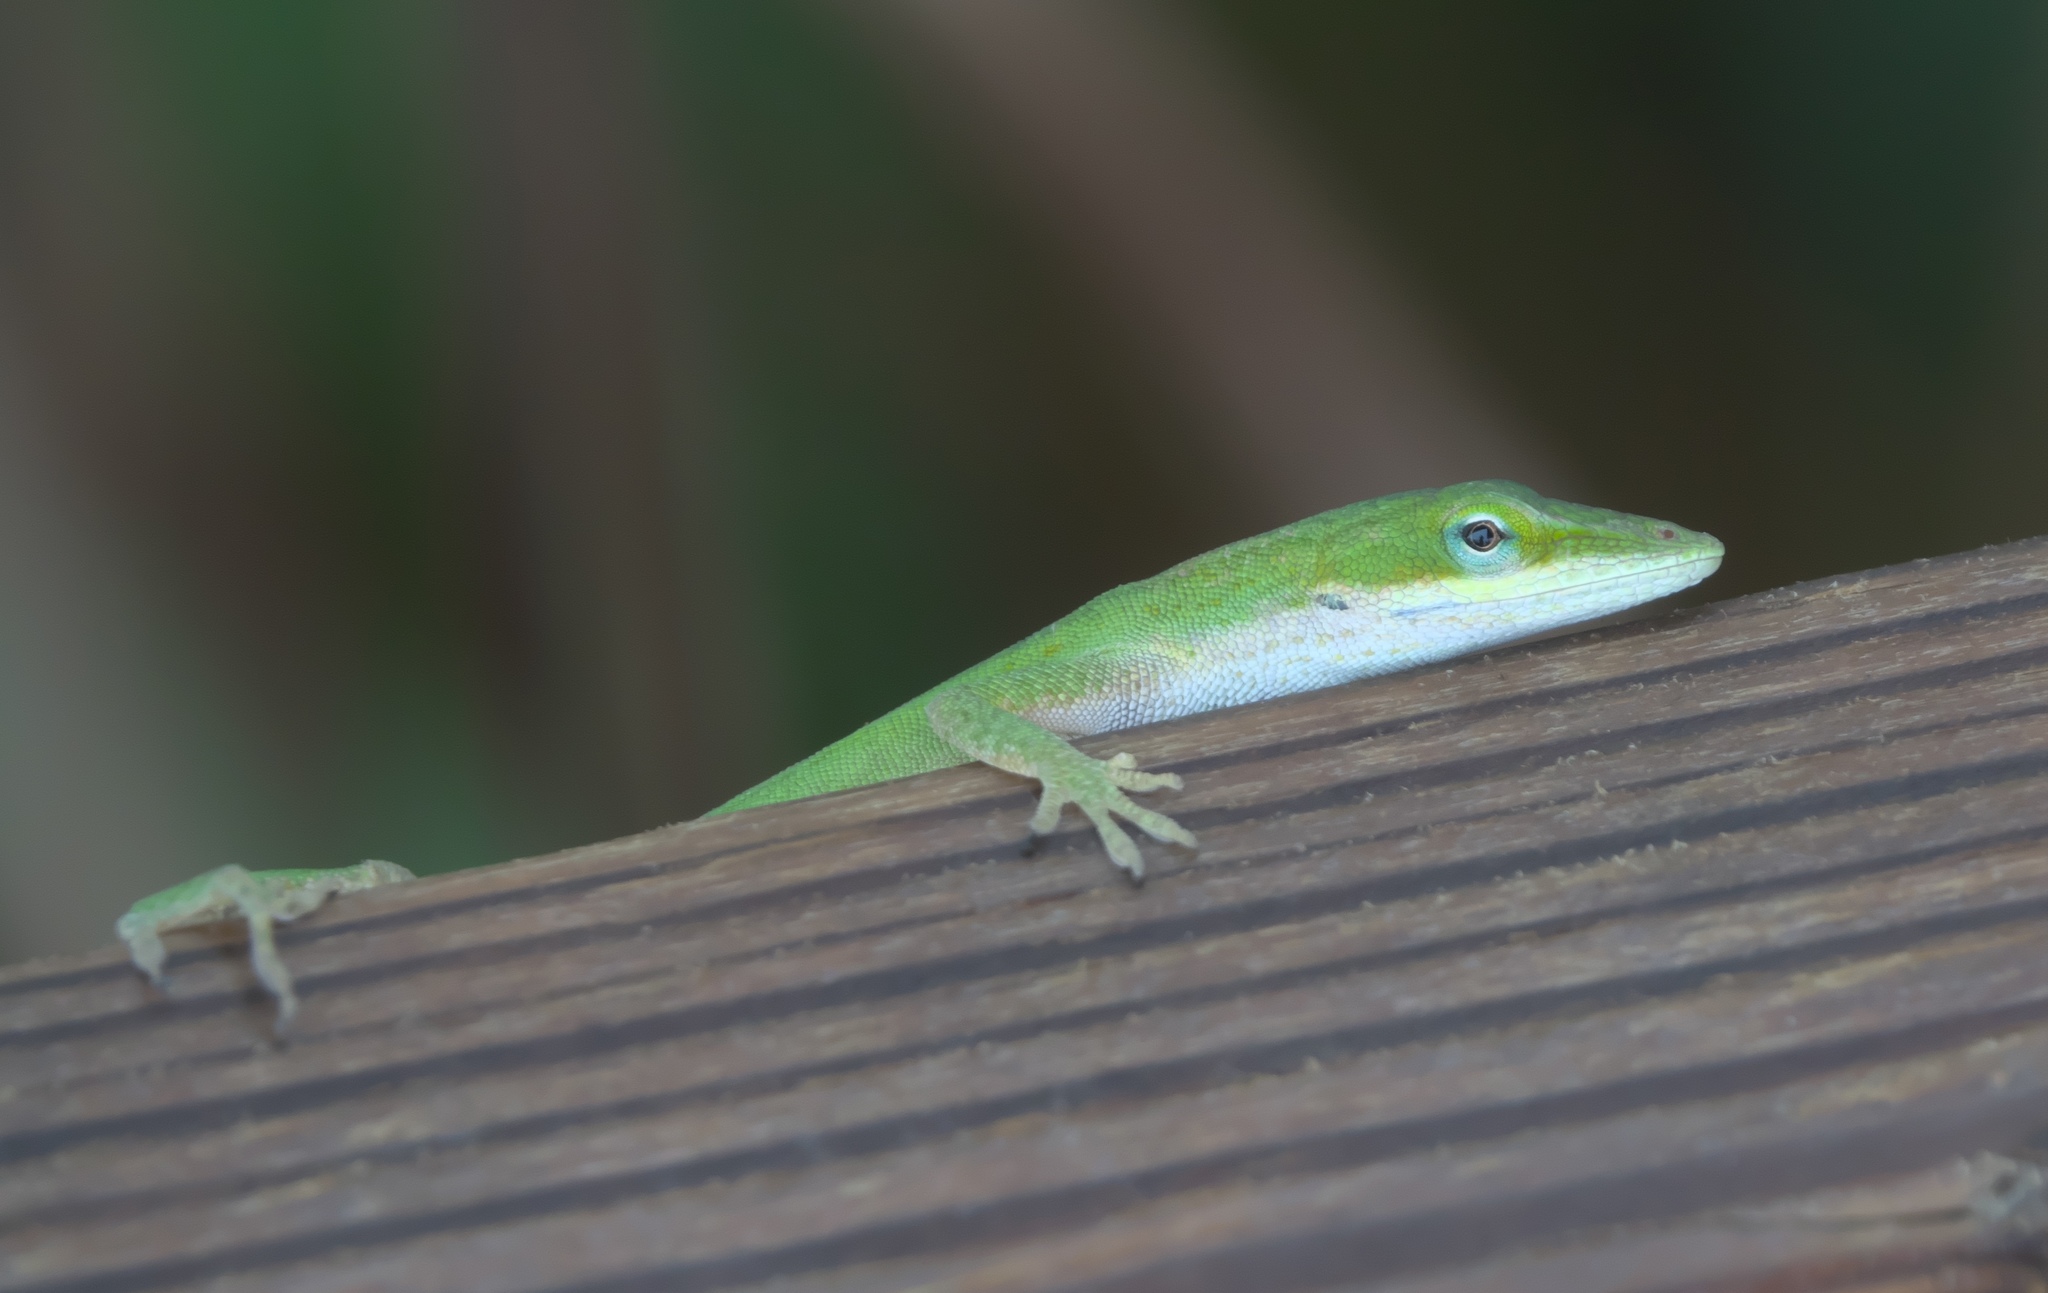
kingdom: Animalia
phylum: Chordata
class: Squamata
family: Dactyloidae
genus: Anolis
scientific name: Anolis carolinensis
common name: Green anole
